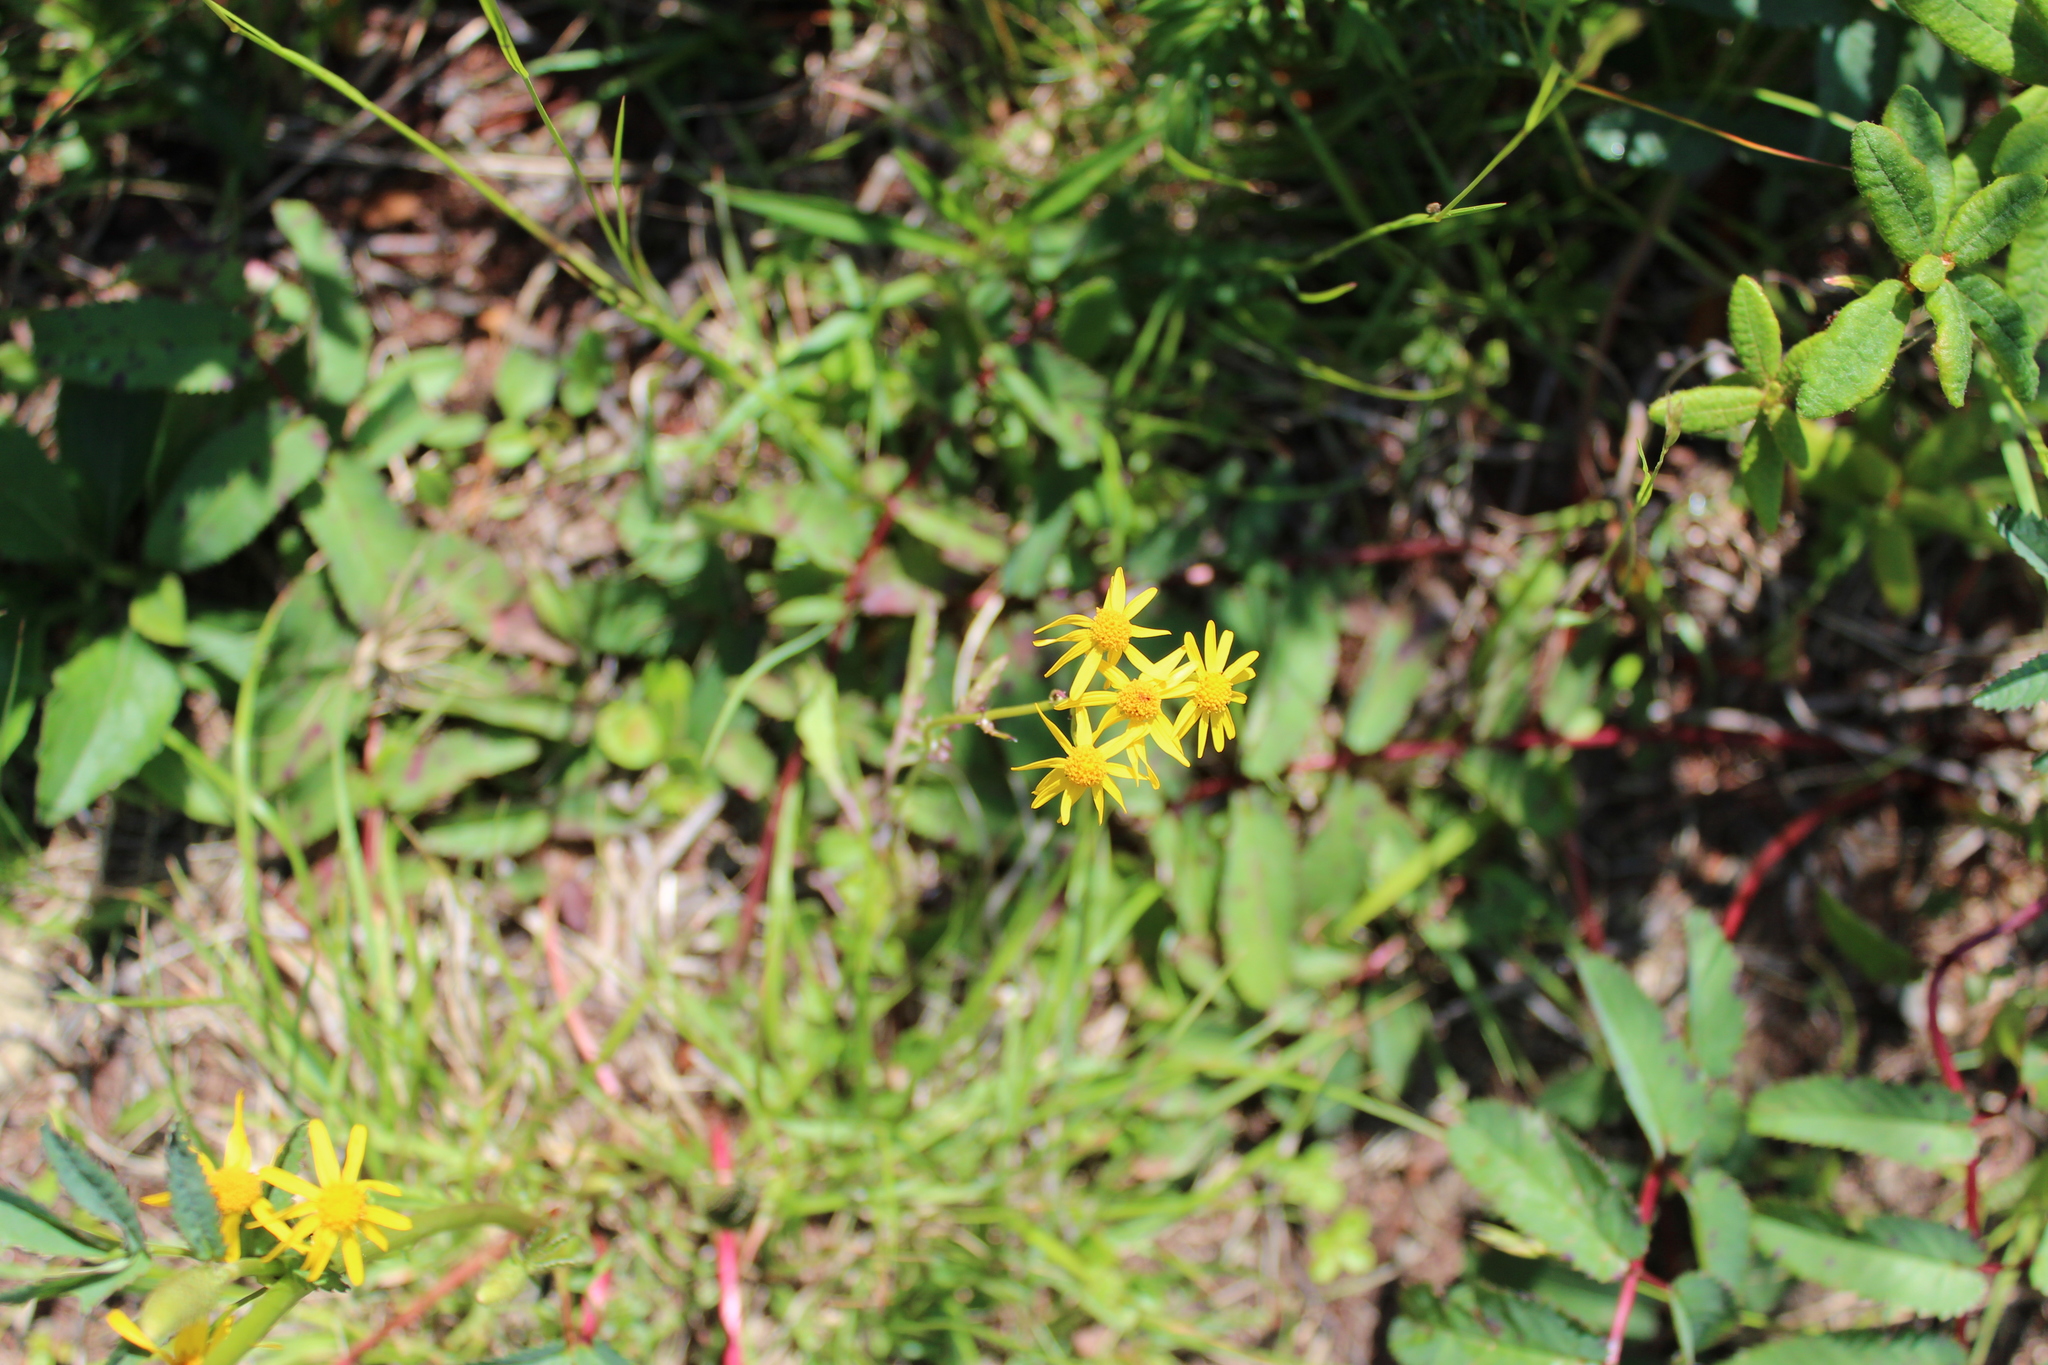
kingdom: Plantae
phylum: Tracheophyta
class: Magnoliopsida
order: Asterales
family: Asteraceae
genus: Packera
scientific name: Packera paupercula
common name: Balsam groundsel
